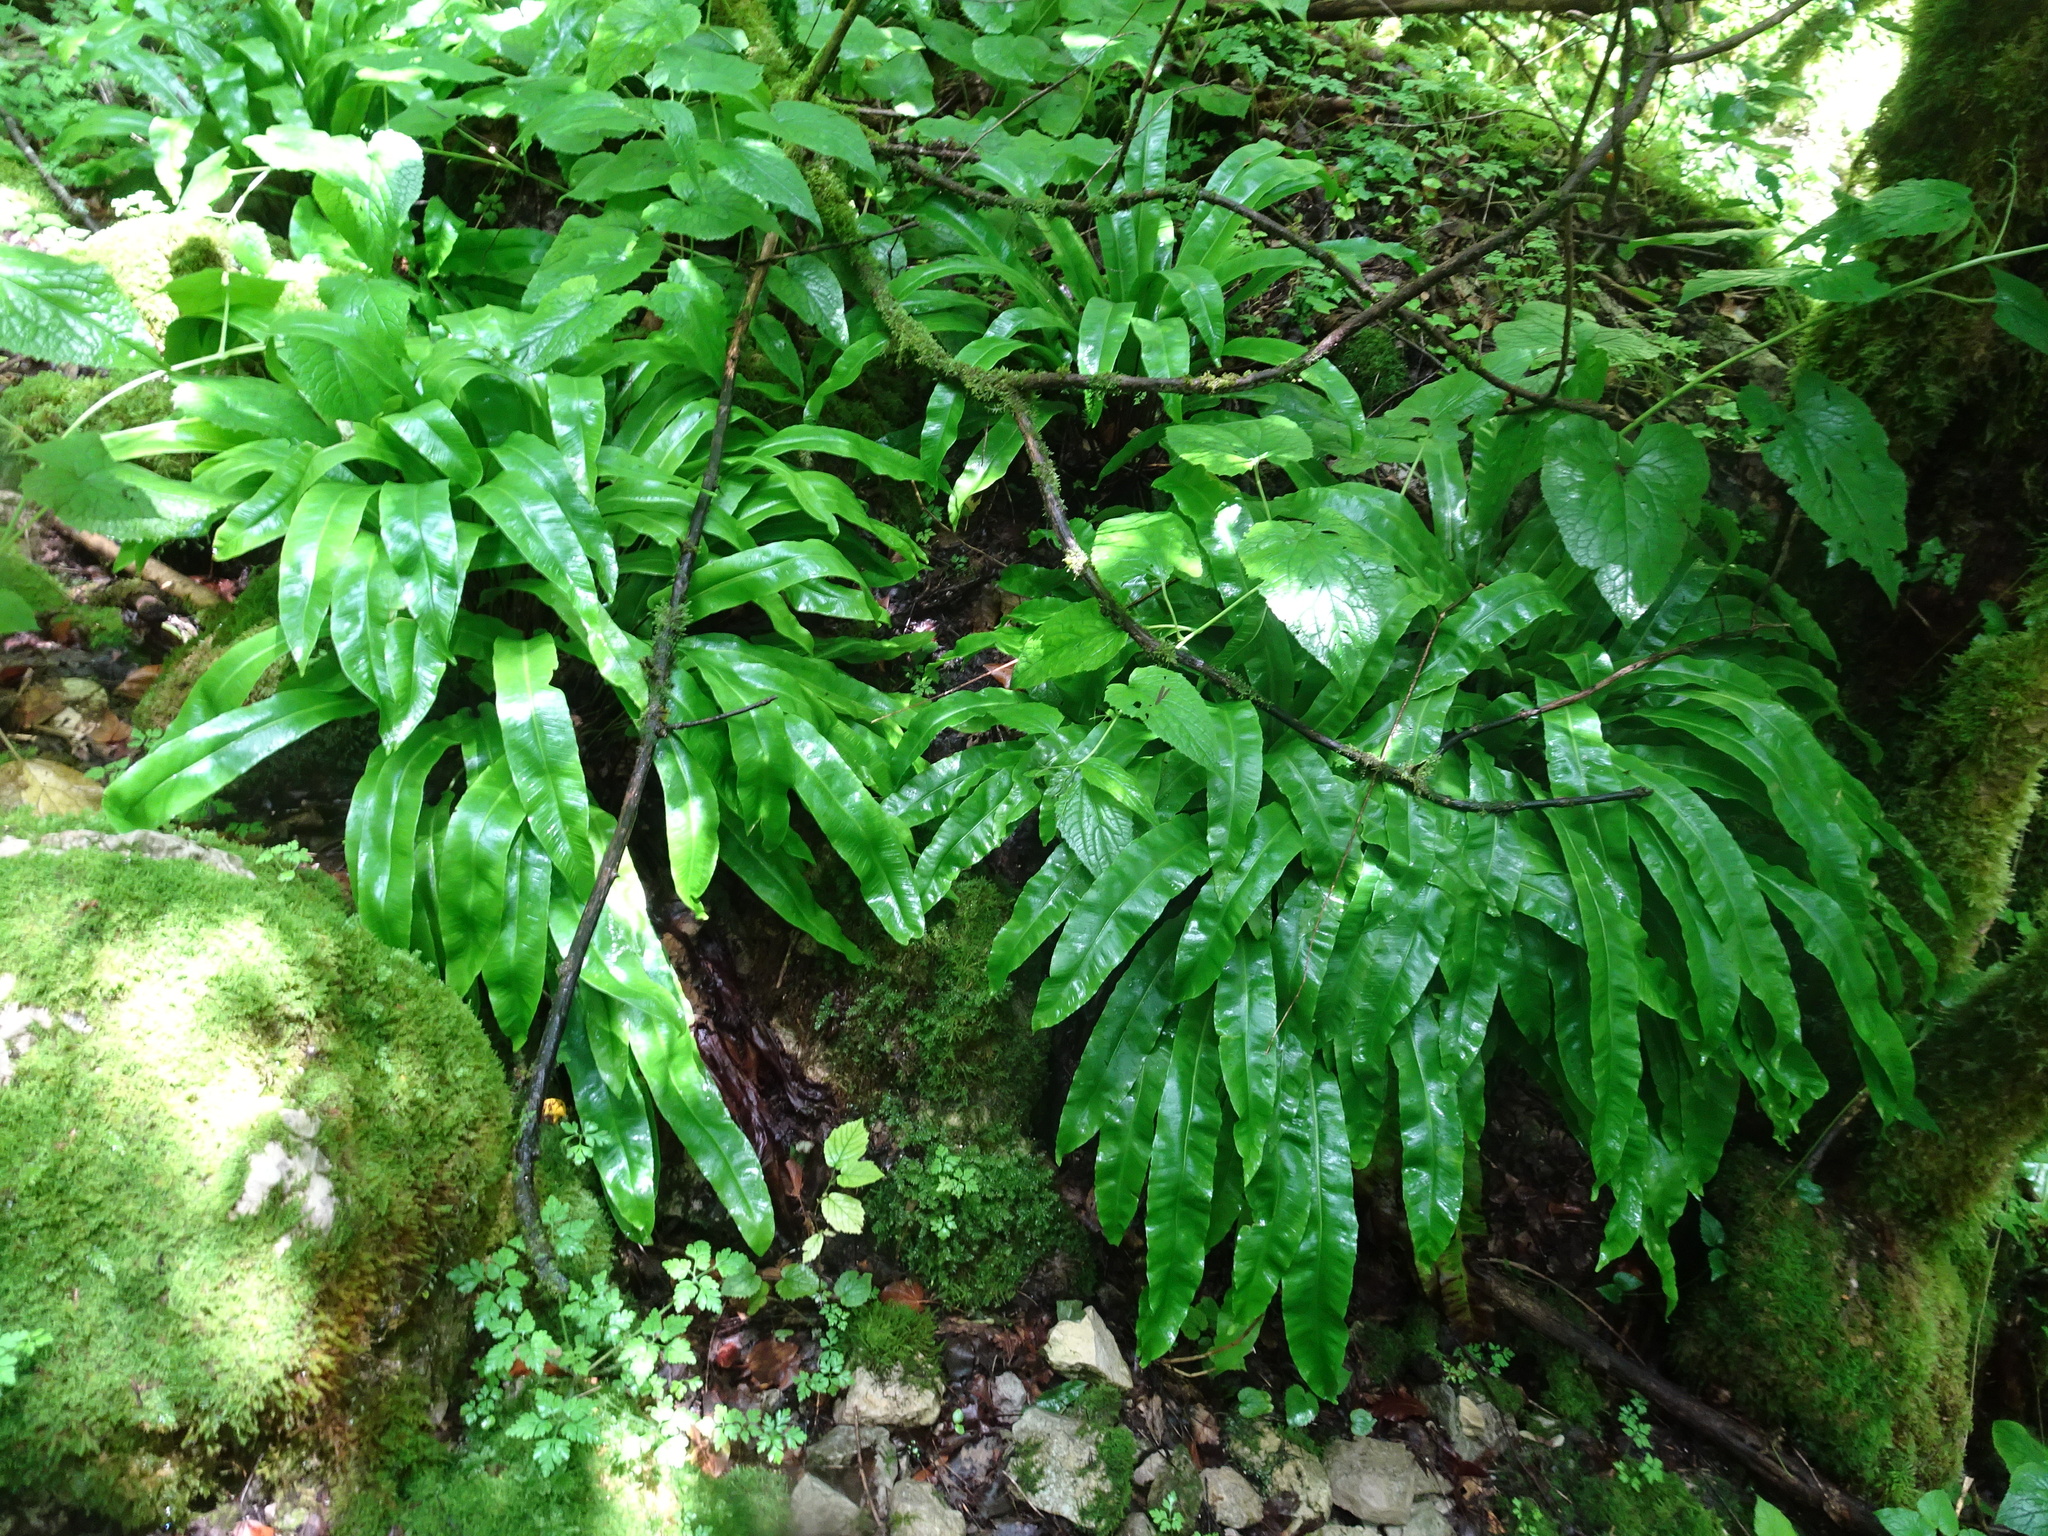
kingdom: Plantae
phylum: Tracheophyta
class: Polypodiopsida
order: Polypodiales
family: Aspleniaceae
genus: Asplenium
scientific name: Asplenium scolopendrium
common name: Hart's-tongue fern
